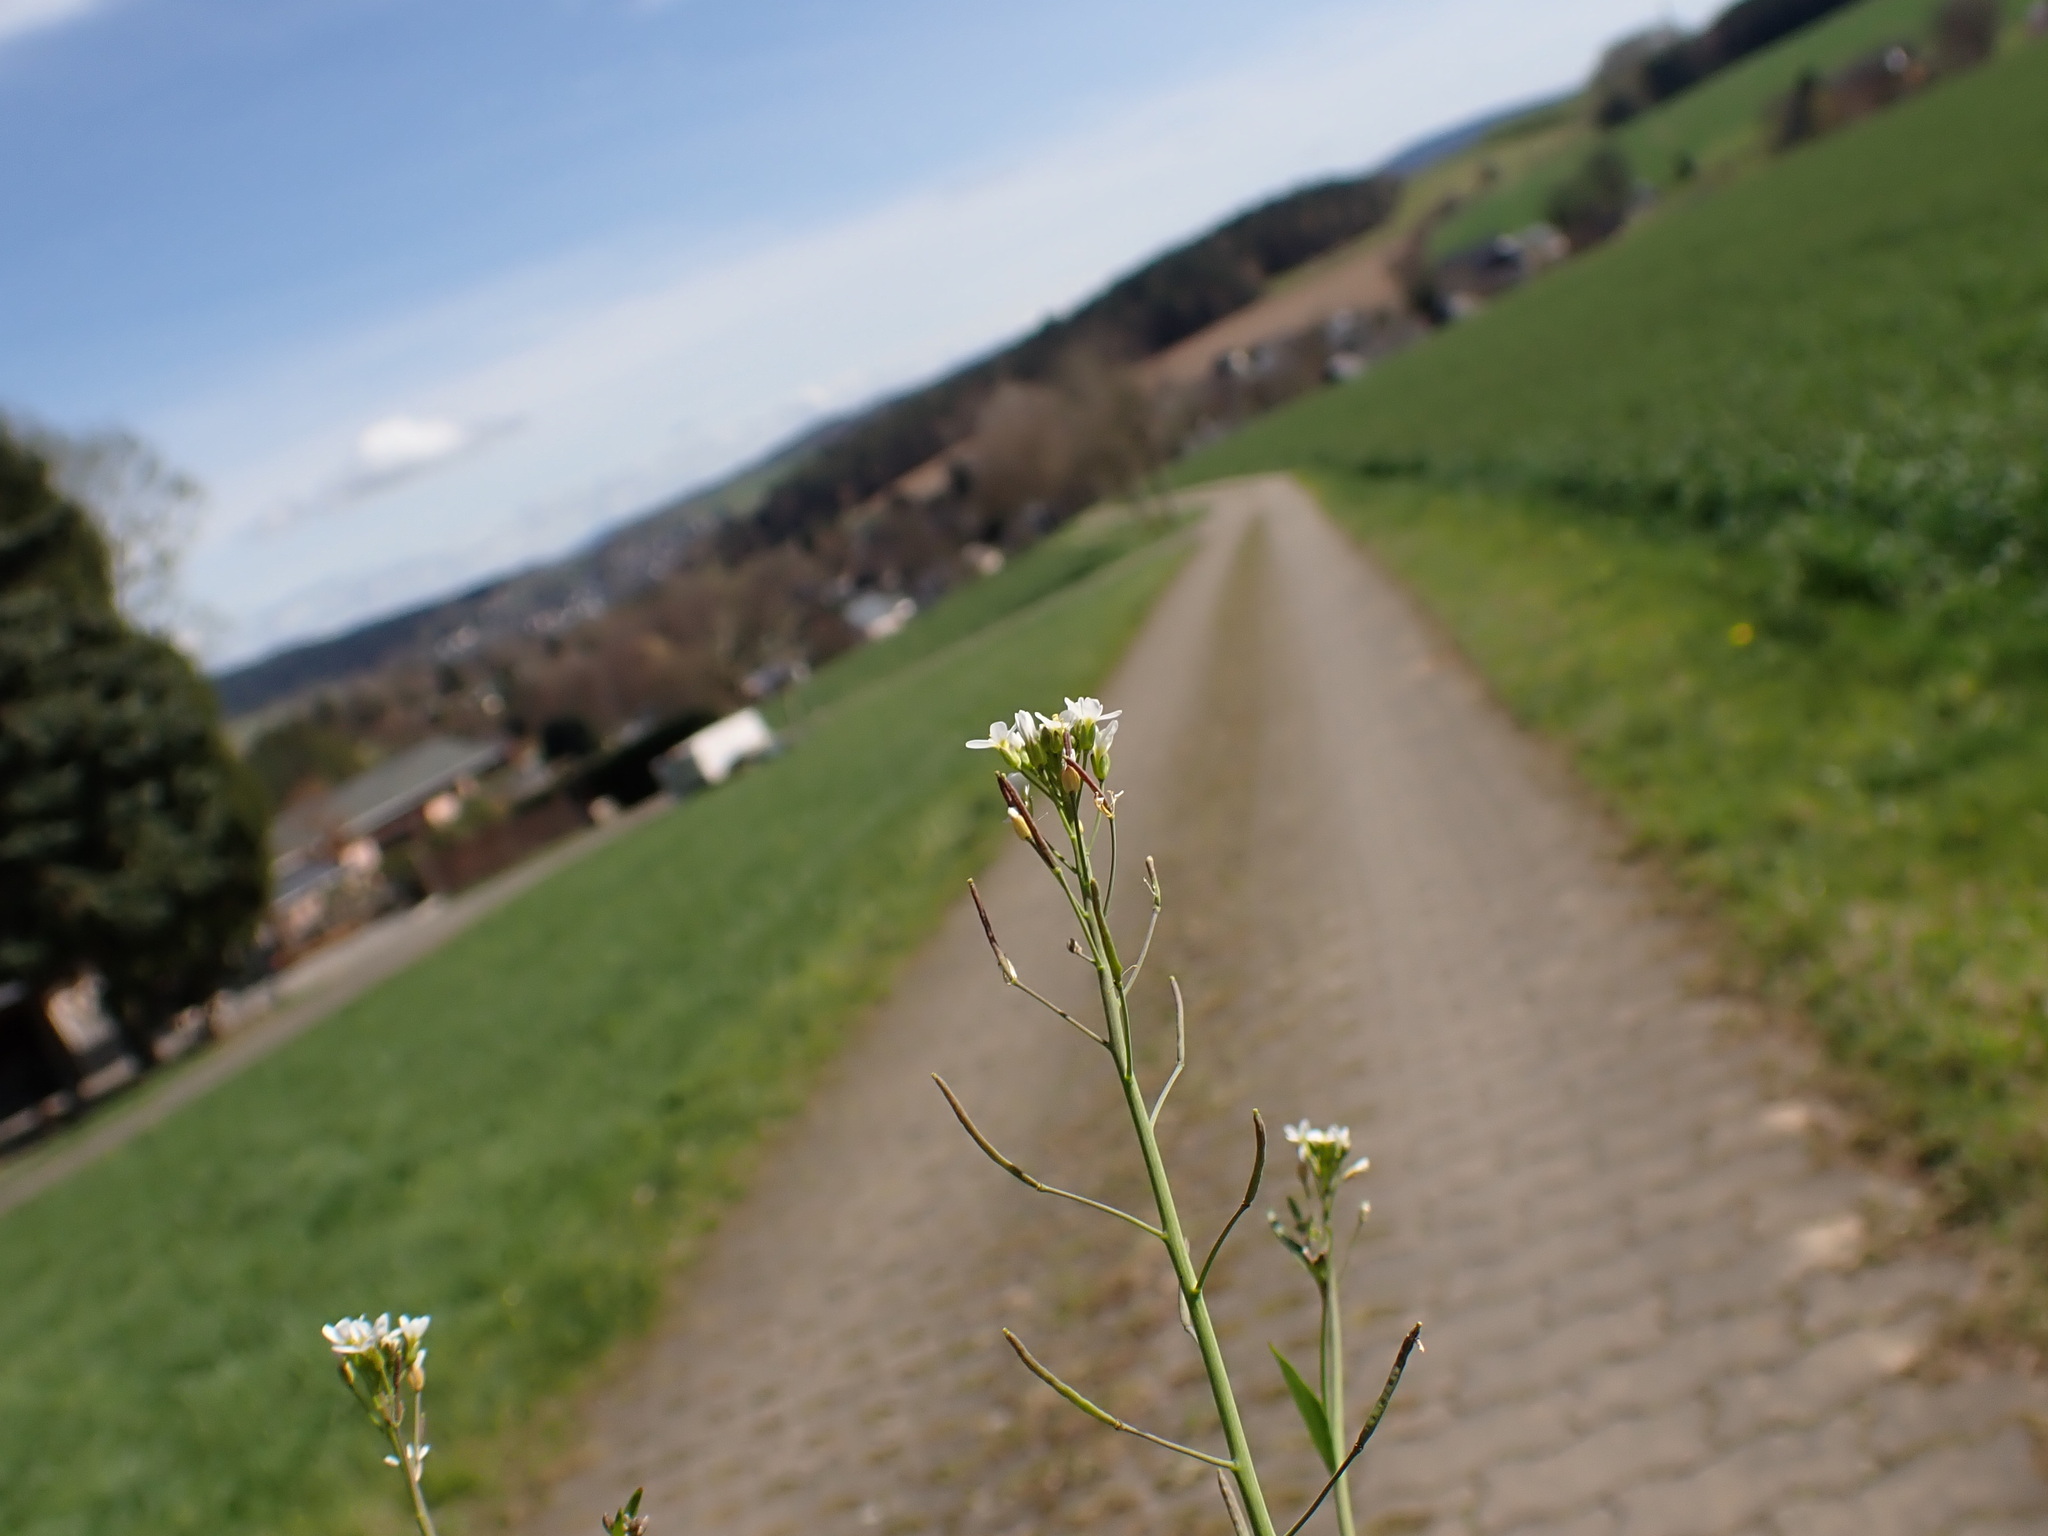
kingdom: Plantae
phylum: Tracheophyta
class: Magnoliopsida
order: Brassicales
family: Brassicaceae
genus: Arabidopsis
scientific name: Arabidopsis thaliana
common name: Thale cress
